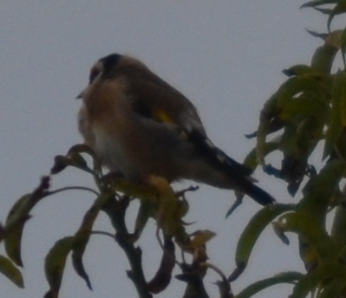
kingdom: Animalia
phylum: Chordata
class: Aves
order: Passeriformes
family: Fringillidae
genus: Carduelis
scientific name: Carduelis carduelis
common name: European goldfinch
